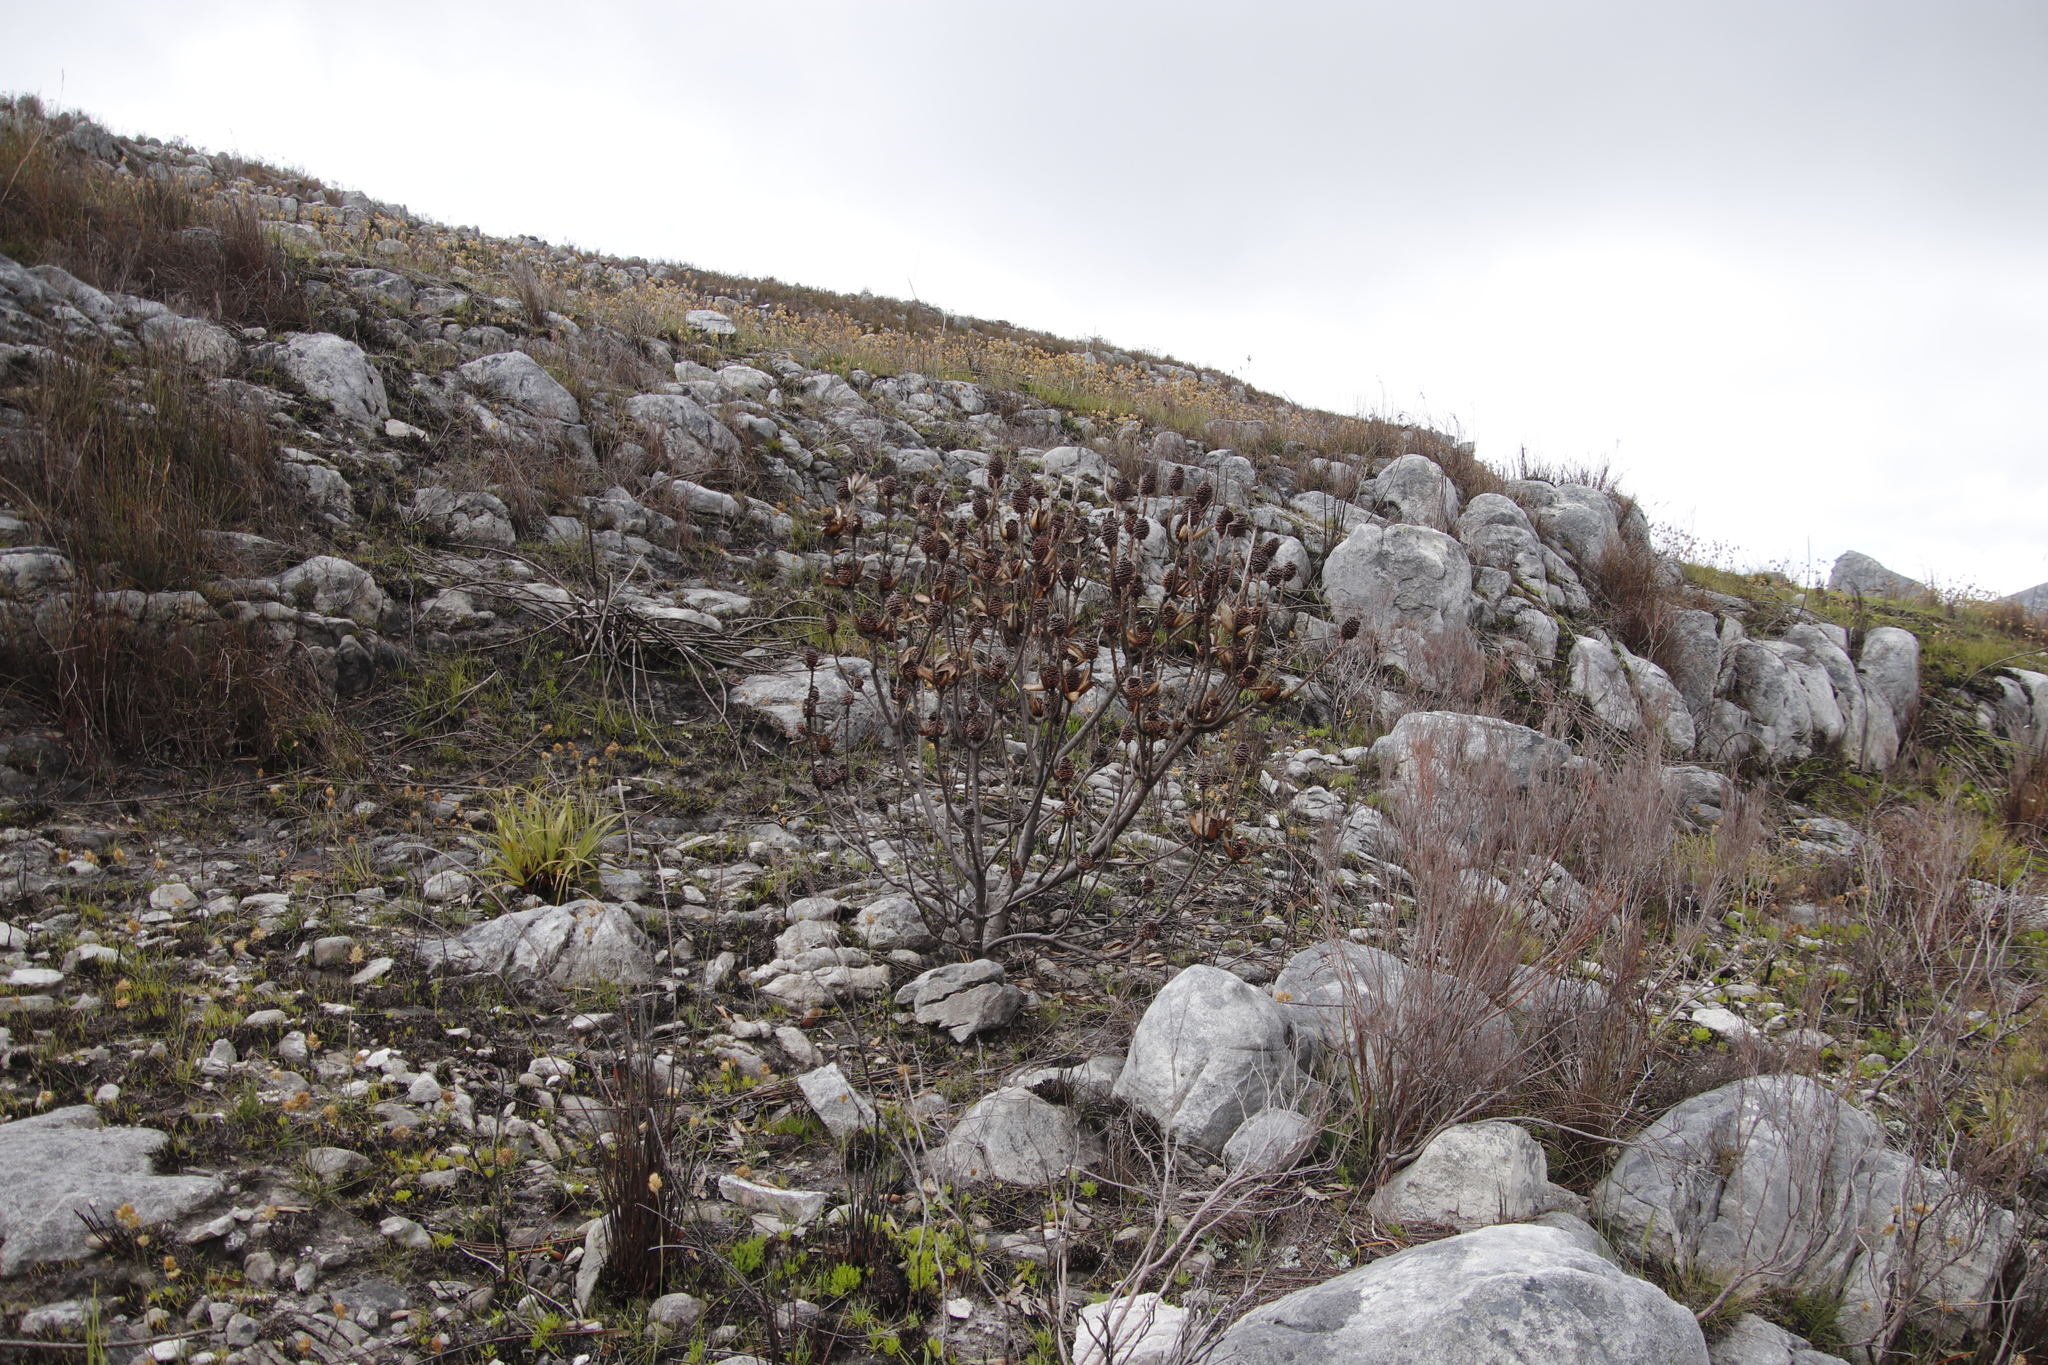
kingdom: Plantae
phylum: Tracheophyta
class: Magnoliopsida
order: Proteales
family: Proteaceae
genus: Leucadendron
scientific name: Leucadendron gandogeri
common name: Broad-leaf conebush
